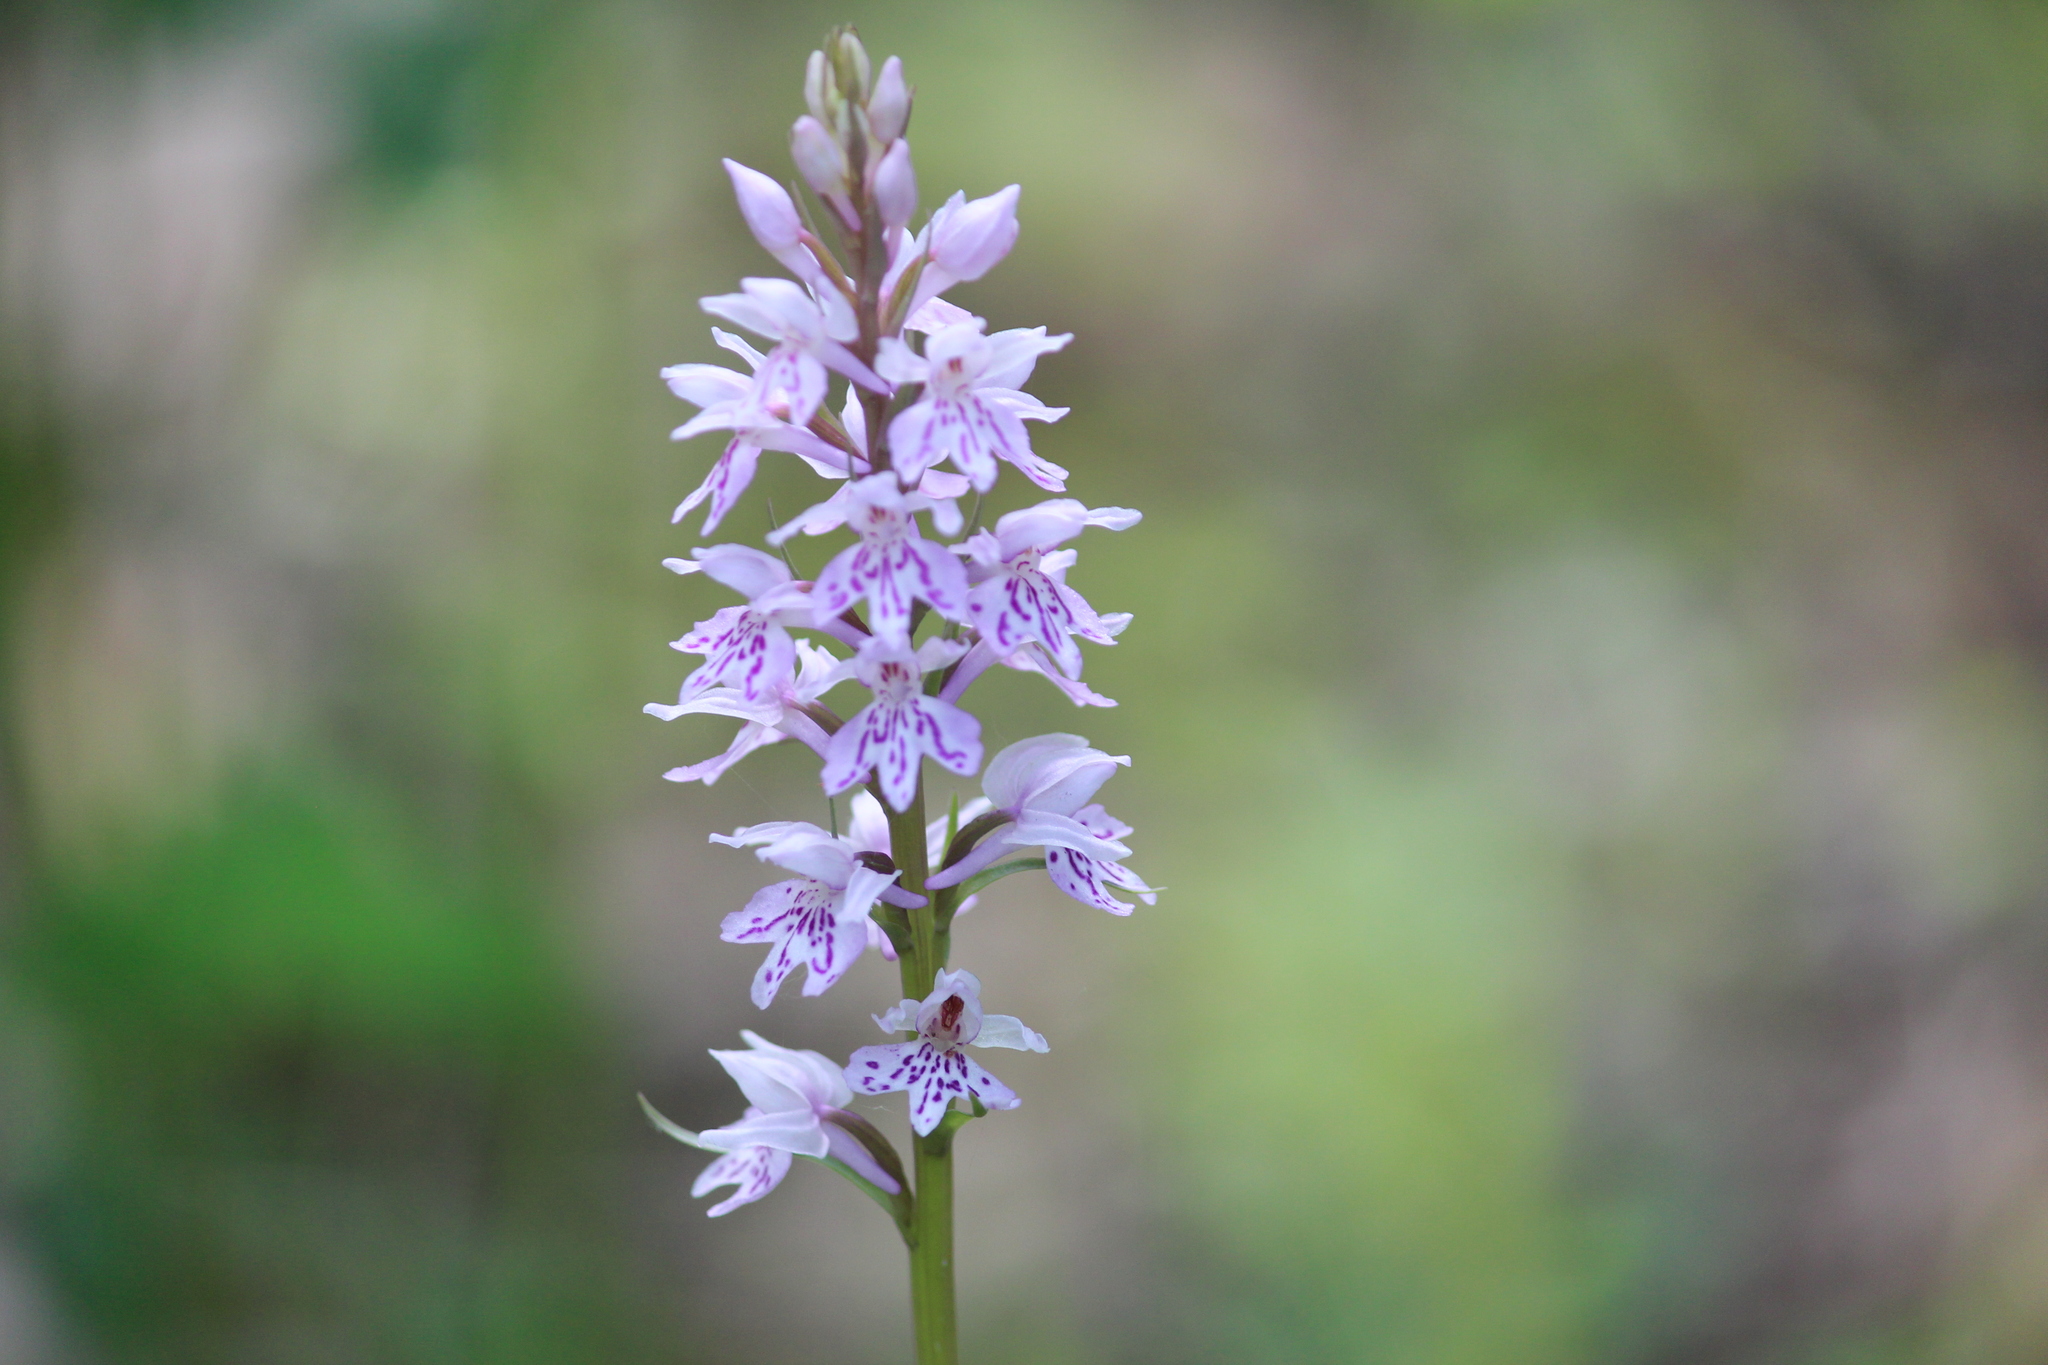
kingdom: Plantae
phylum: Tracheophyta
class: Liliopsida
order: Asparagales
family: Orchidaceae
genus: Dactylorhiza
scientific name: Dactylorhiza maculata
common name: Heath spotted-orchid
